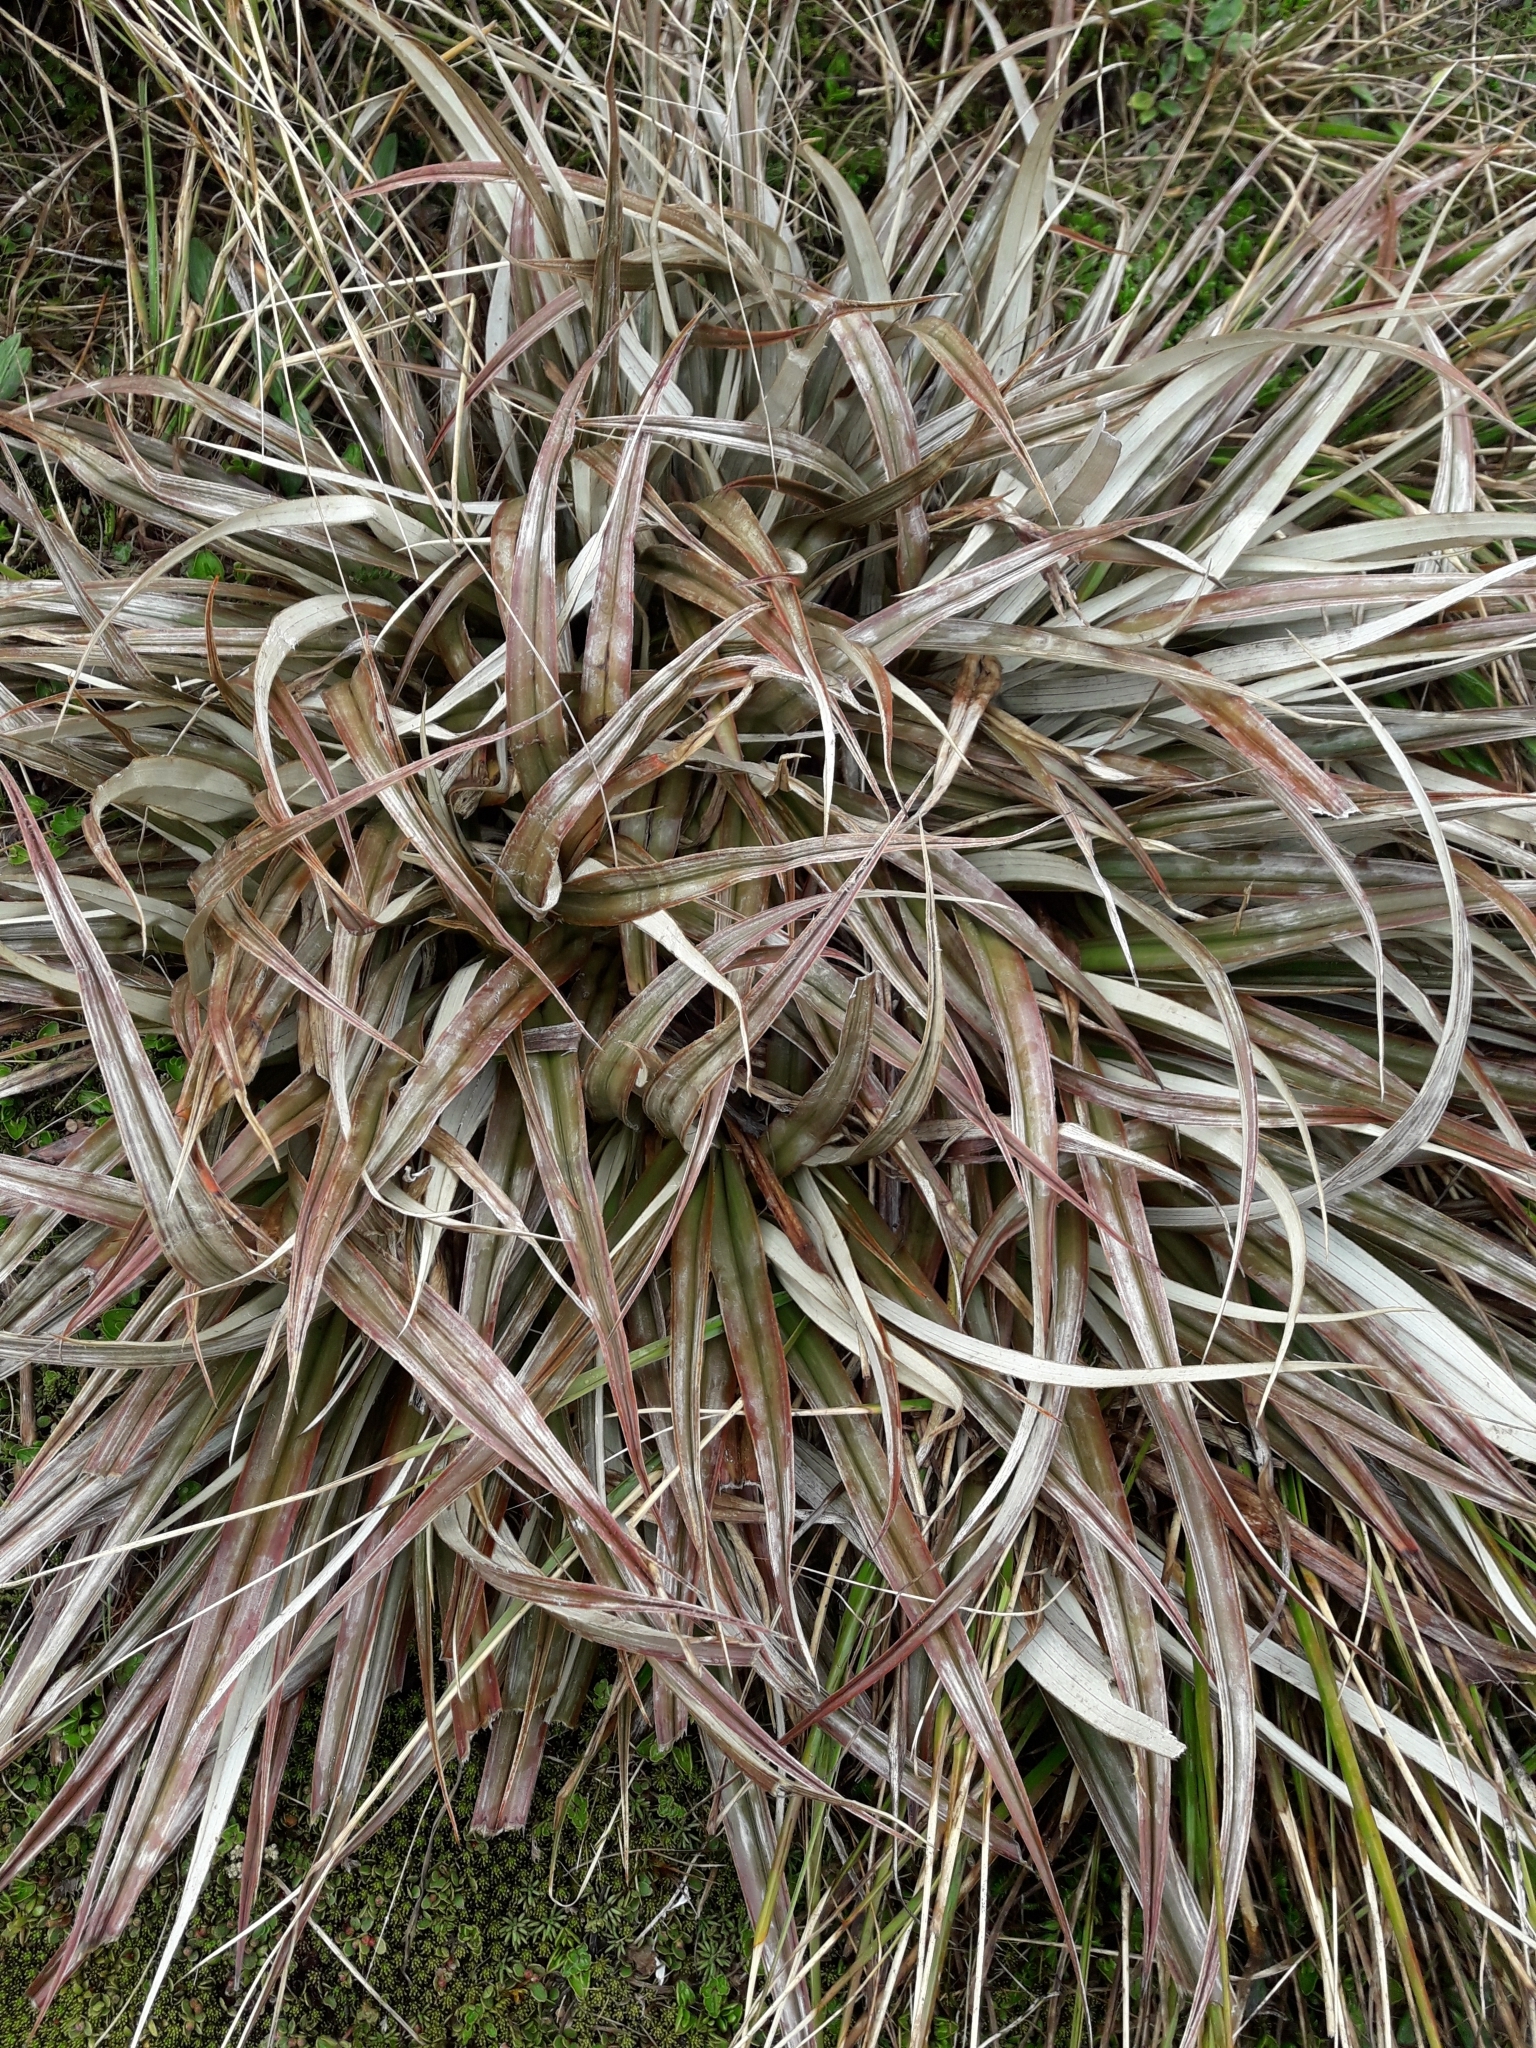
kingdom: Plantae
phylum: Tracheophyta
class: Liliopsida
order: Asparagales
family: Asteliaceae
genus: Astelia
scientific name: Astelia nivicola
